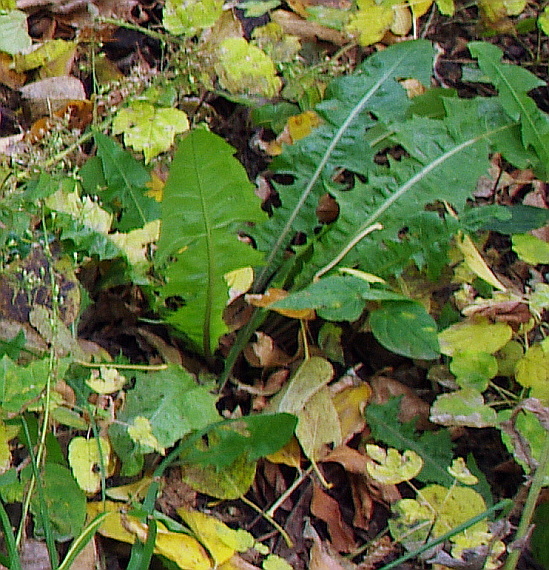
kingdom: Plantae
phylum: Tracheophyta
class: Magnoliopsida
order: Asterales
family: Asteraceae
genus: Taraxacum
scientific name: Taraxacum officinale
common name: Common dandelion
